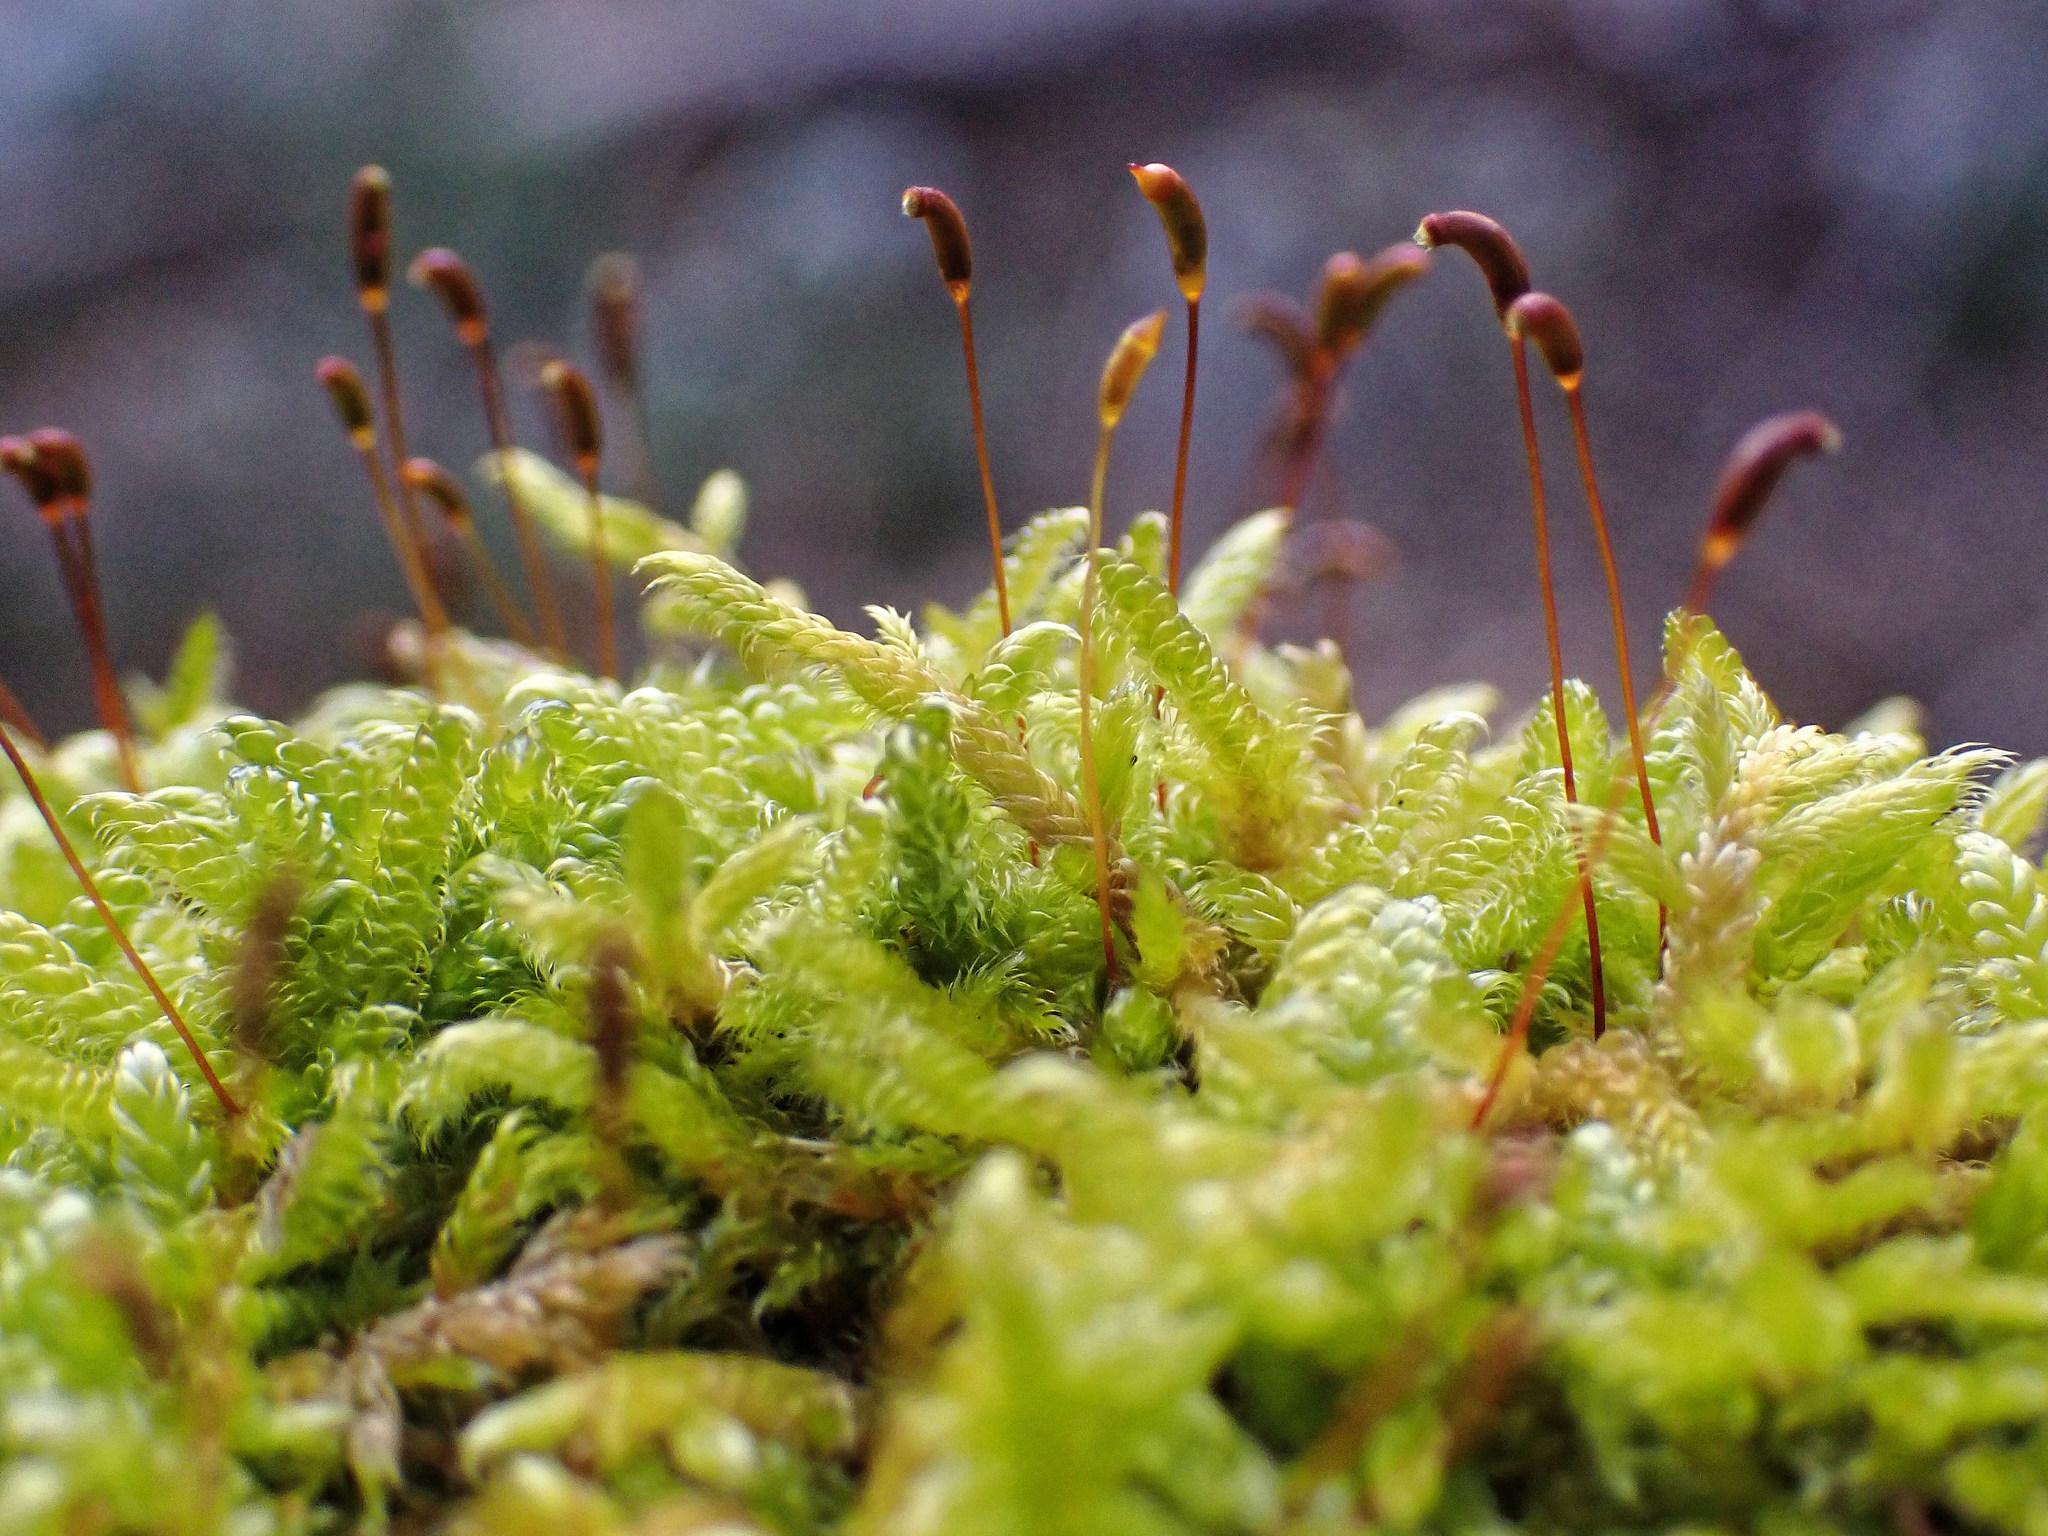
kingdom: Plantae
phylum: Bryophyta
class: Bryopsida
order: Hypnales
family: Hypnaceae
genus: Hypnum
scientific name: Hypnum cupressiforme
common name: Cypress-leaved plait-moss
